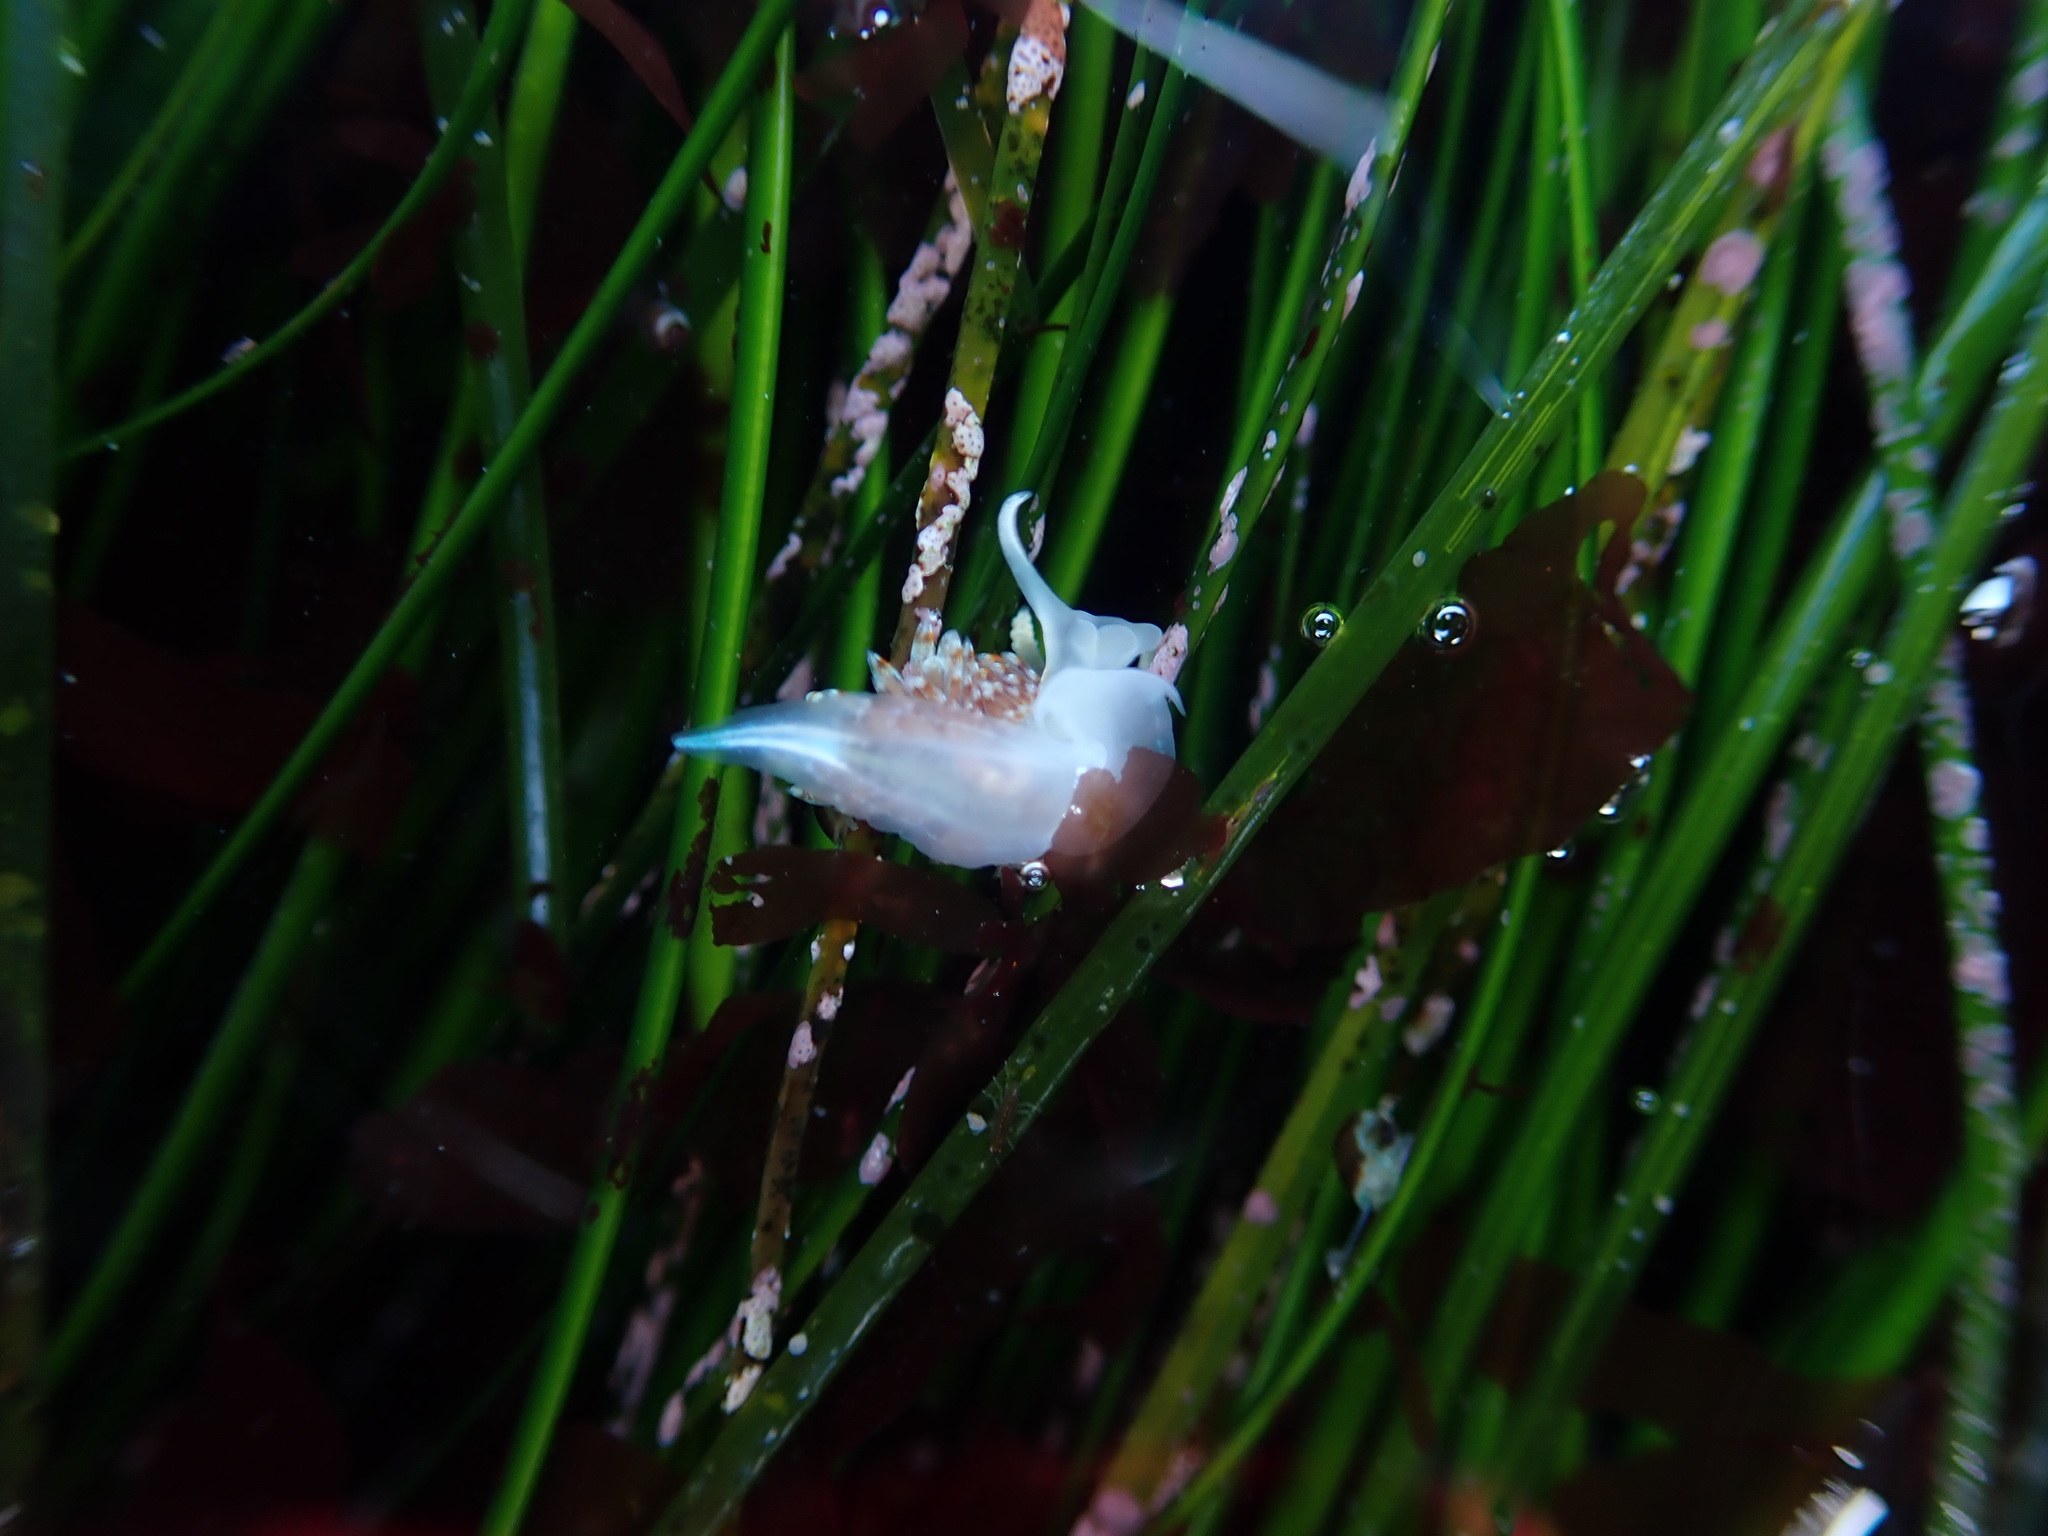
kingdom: Animalia
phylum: Mollusca
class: Gastropoda
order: Nudibranchia
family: Myrrhinidae
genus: Hermissenda
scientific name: Hermissenda opalescens
